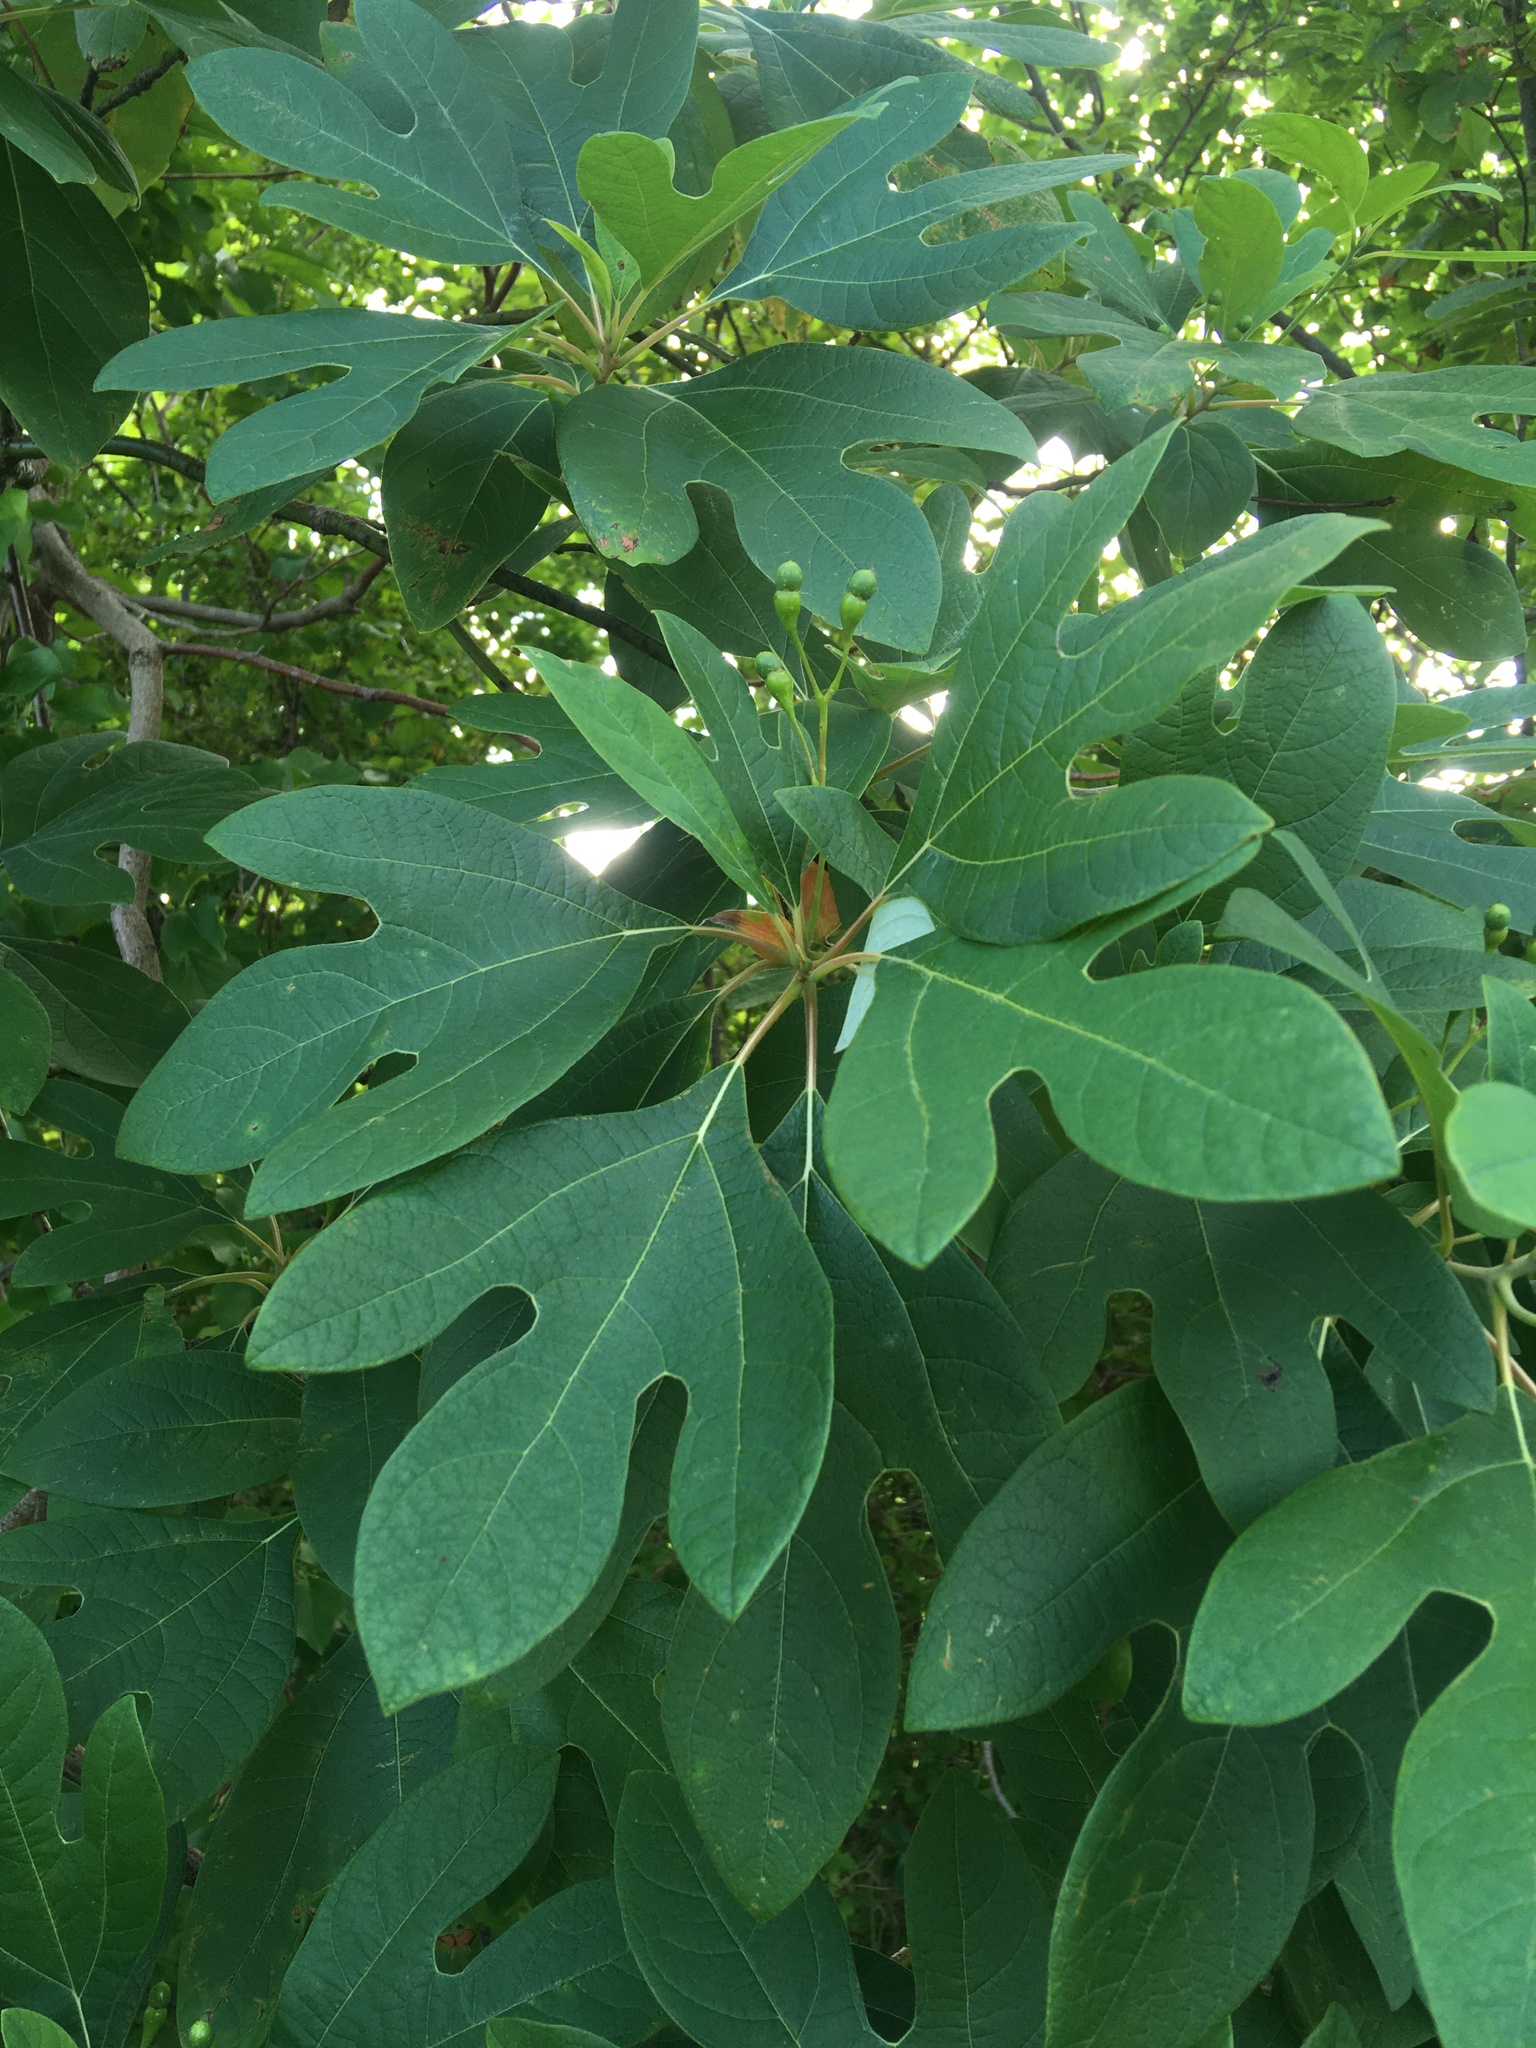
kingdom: Plantae
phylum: Tracheophyta
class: Magnoliopsida
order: Laurales
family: Lauraceae
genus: Sassafras
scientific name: Sassafras albidum
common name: Sassafras
